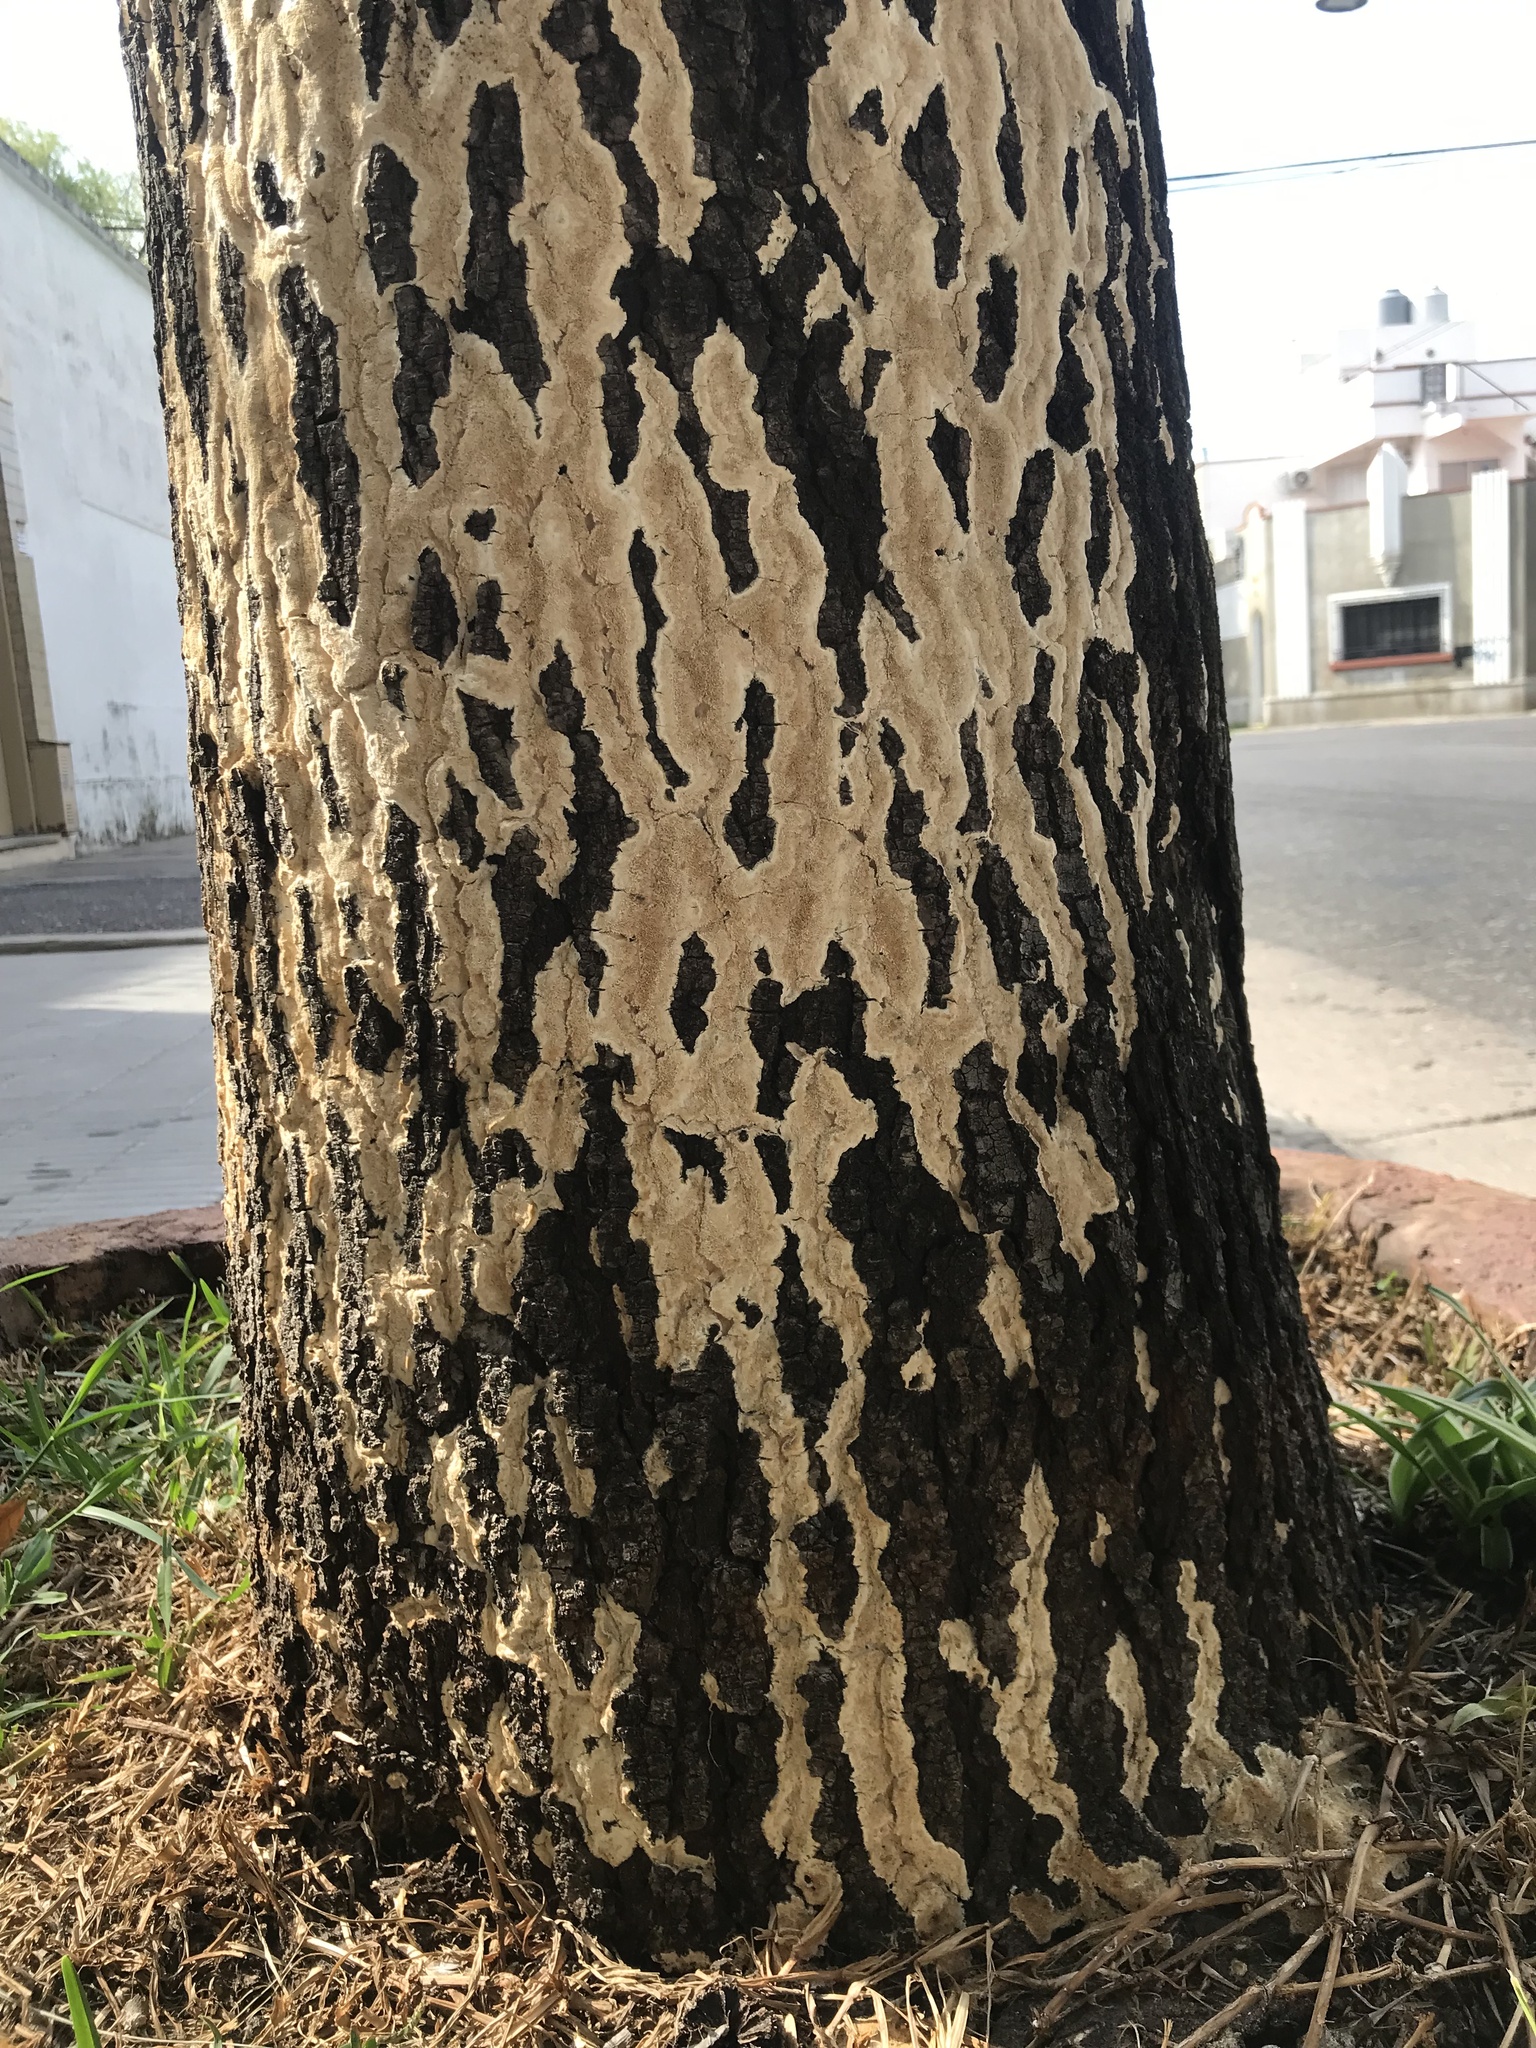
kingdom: Fungi
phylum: Basidiomycota
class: Agaricomycetes
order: Hymenochaetales
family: Schizoporaceae
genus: Schizopora
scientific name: Schizopora paradoxa
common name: Split porecrust
